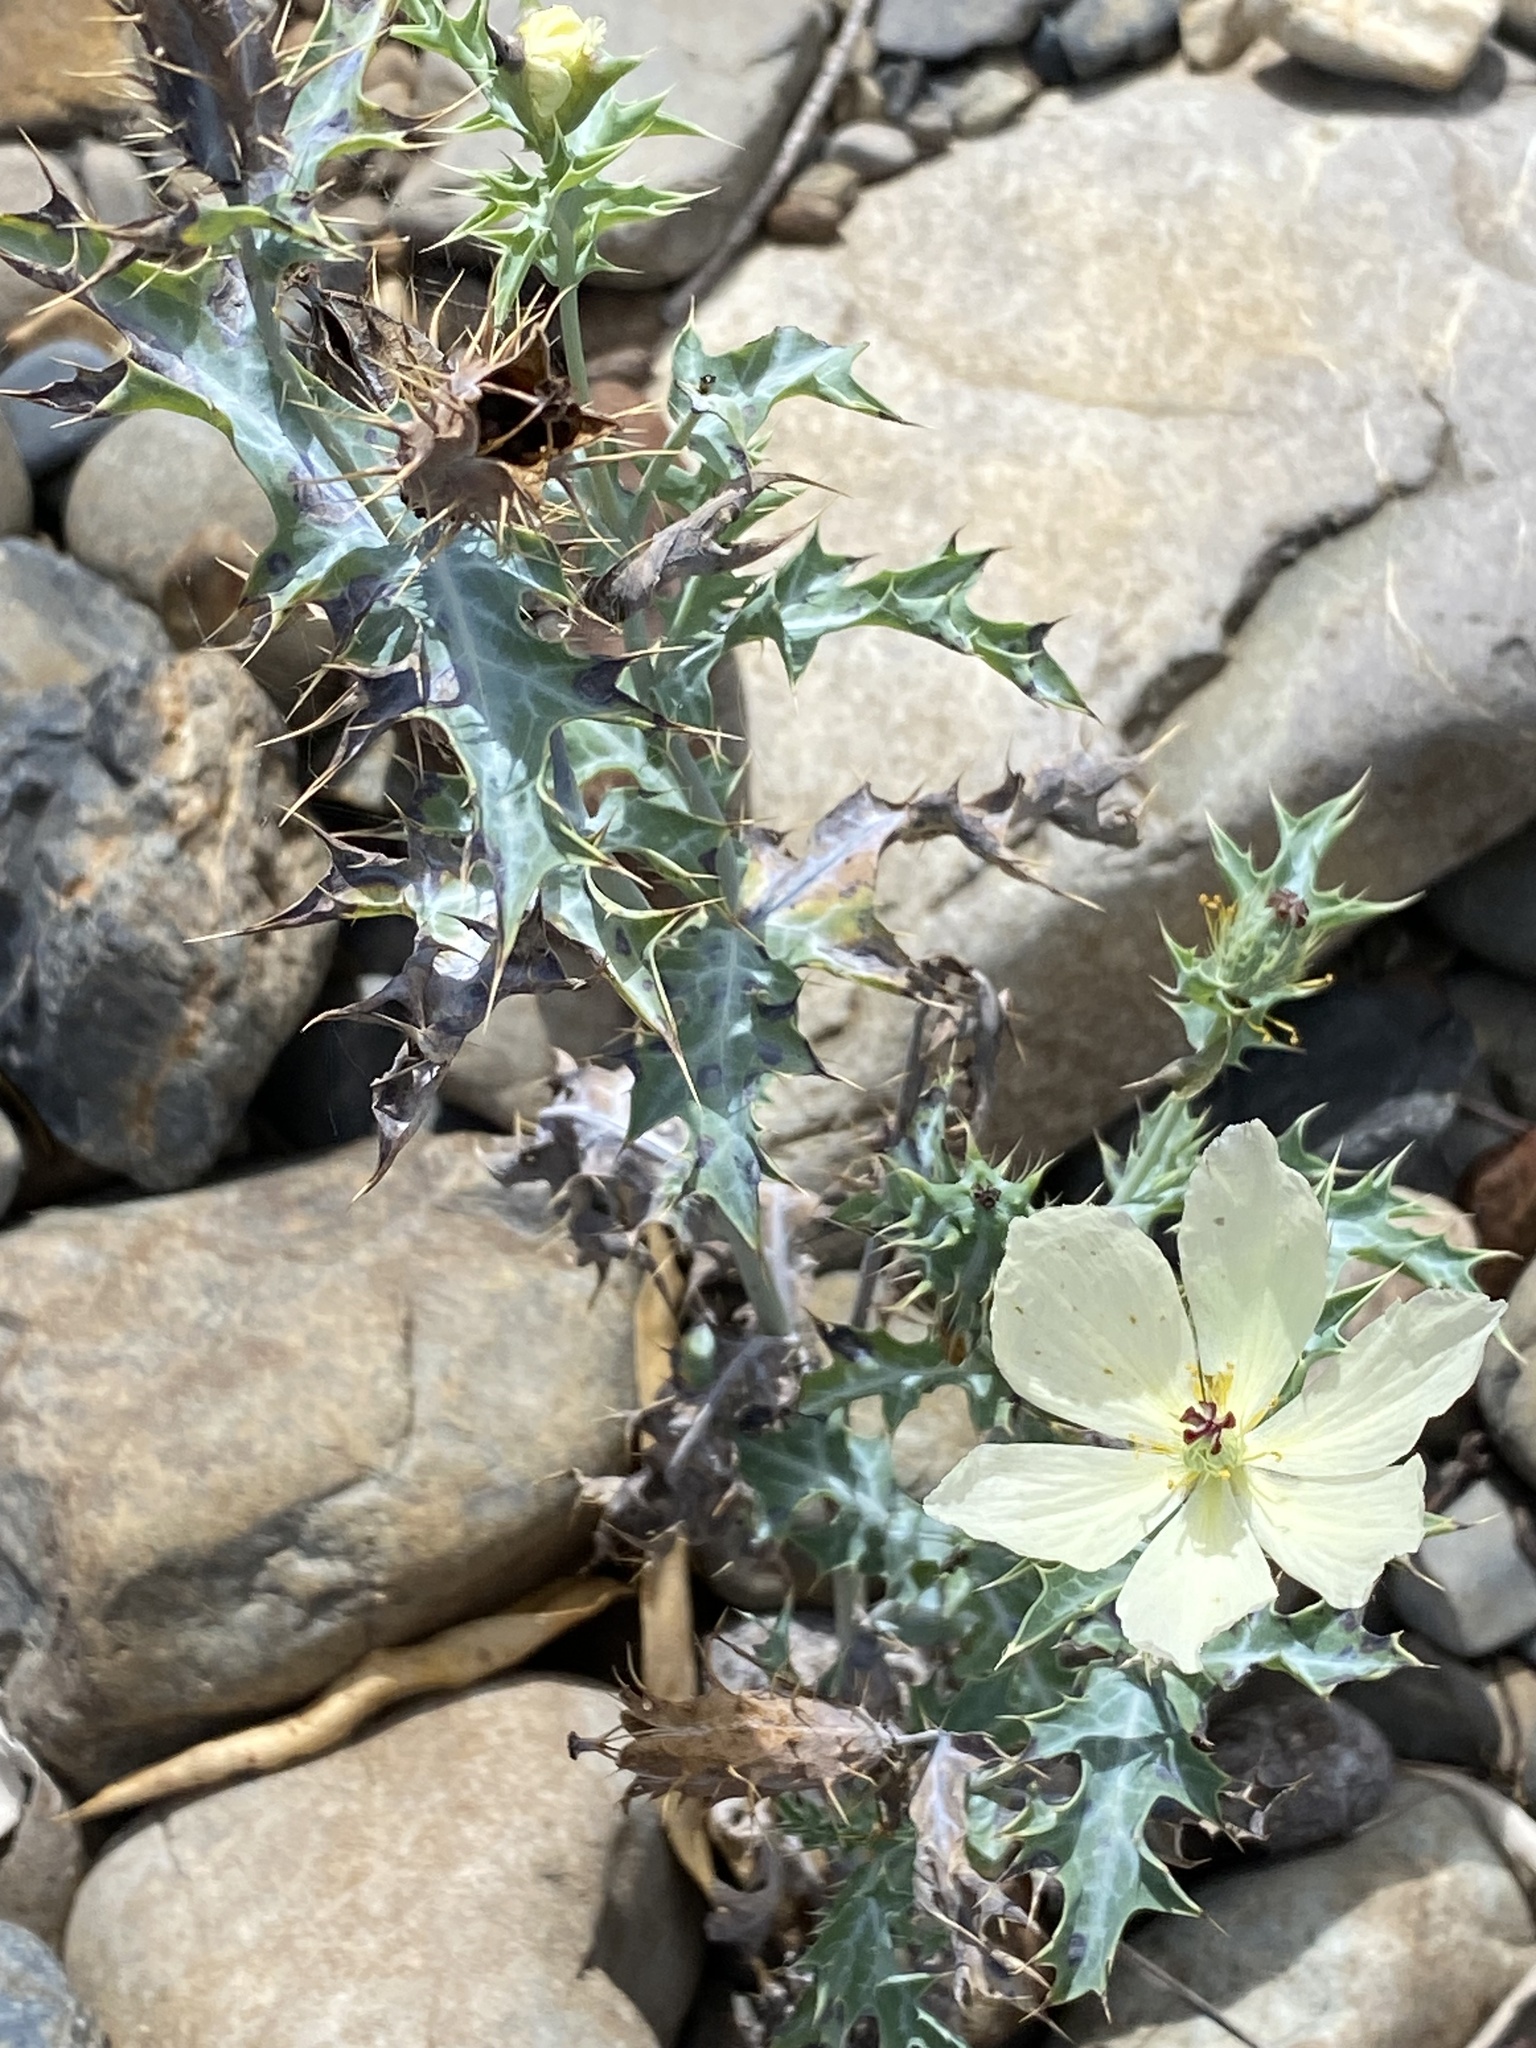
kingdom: Plantae
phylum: Tracheophyta
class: Magnoliopsida
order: Ranunculales
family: Papaveraceae
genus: Argemone
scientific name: Argemone ochroleuca
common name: White-flower mexican-poppy
